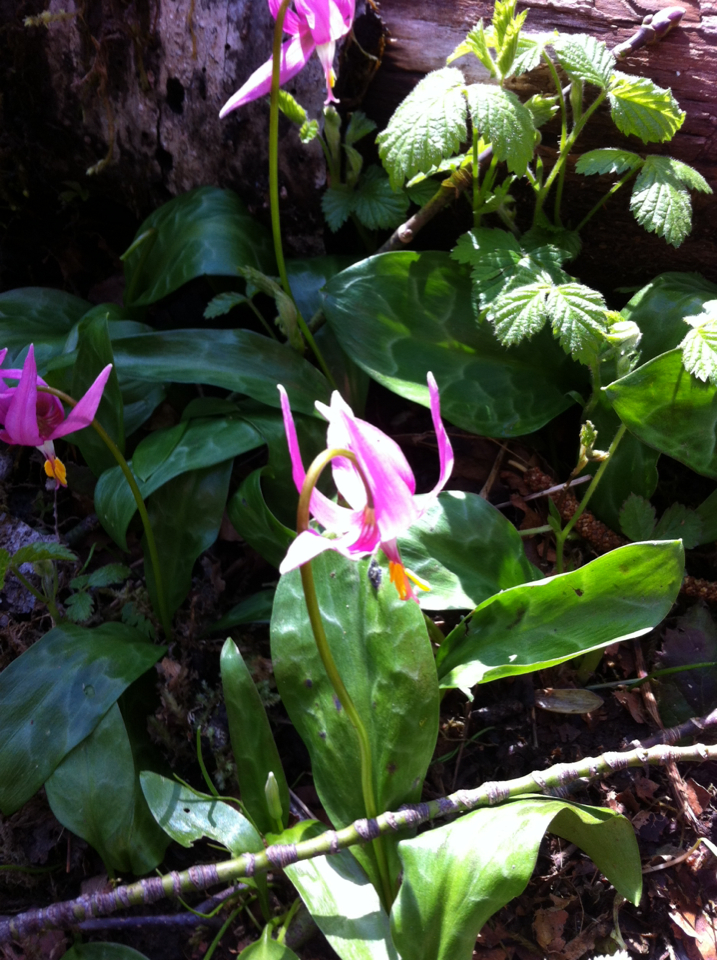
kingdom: Plantae
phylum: Tracheophyta
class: Liliopsida
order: Liliales
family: Liliaceae
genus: Erythronium
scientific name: Erythronium revolutum
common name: Pink fawn-lily
